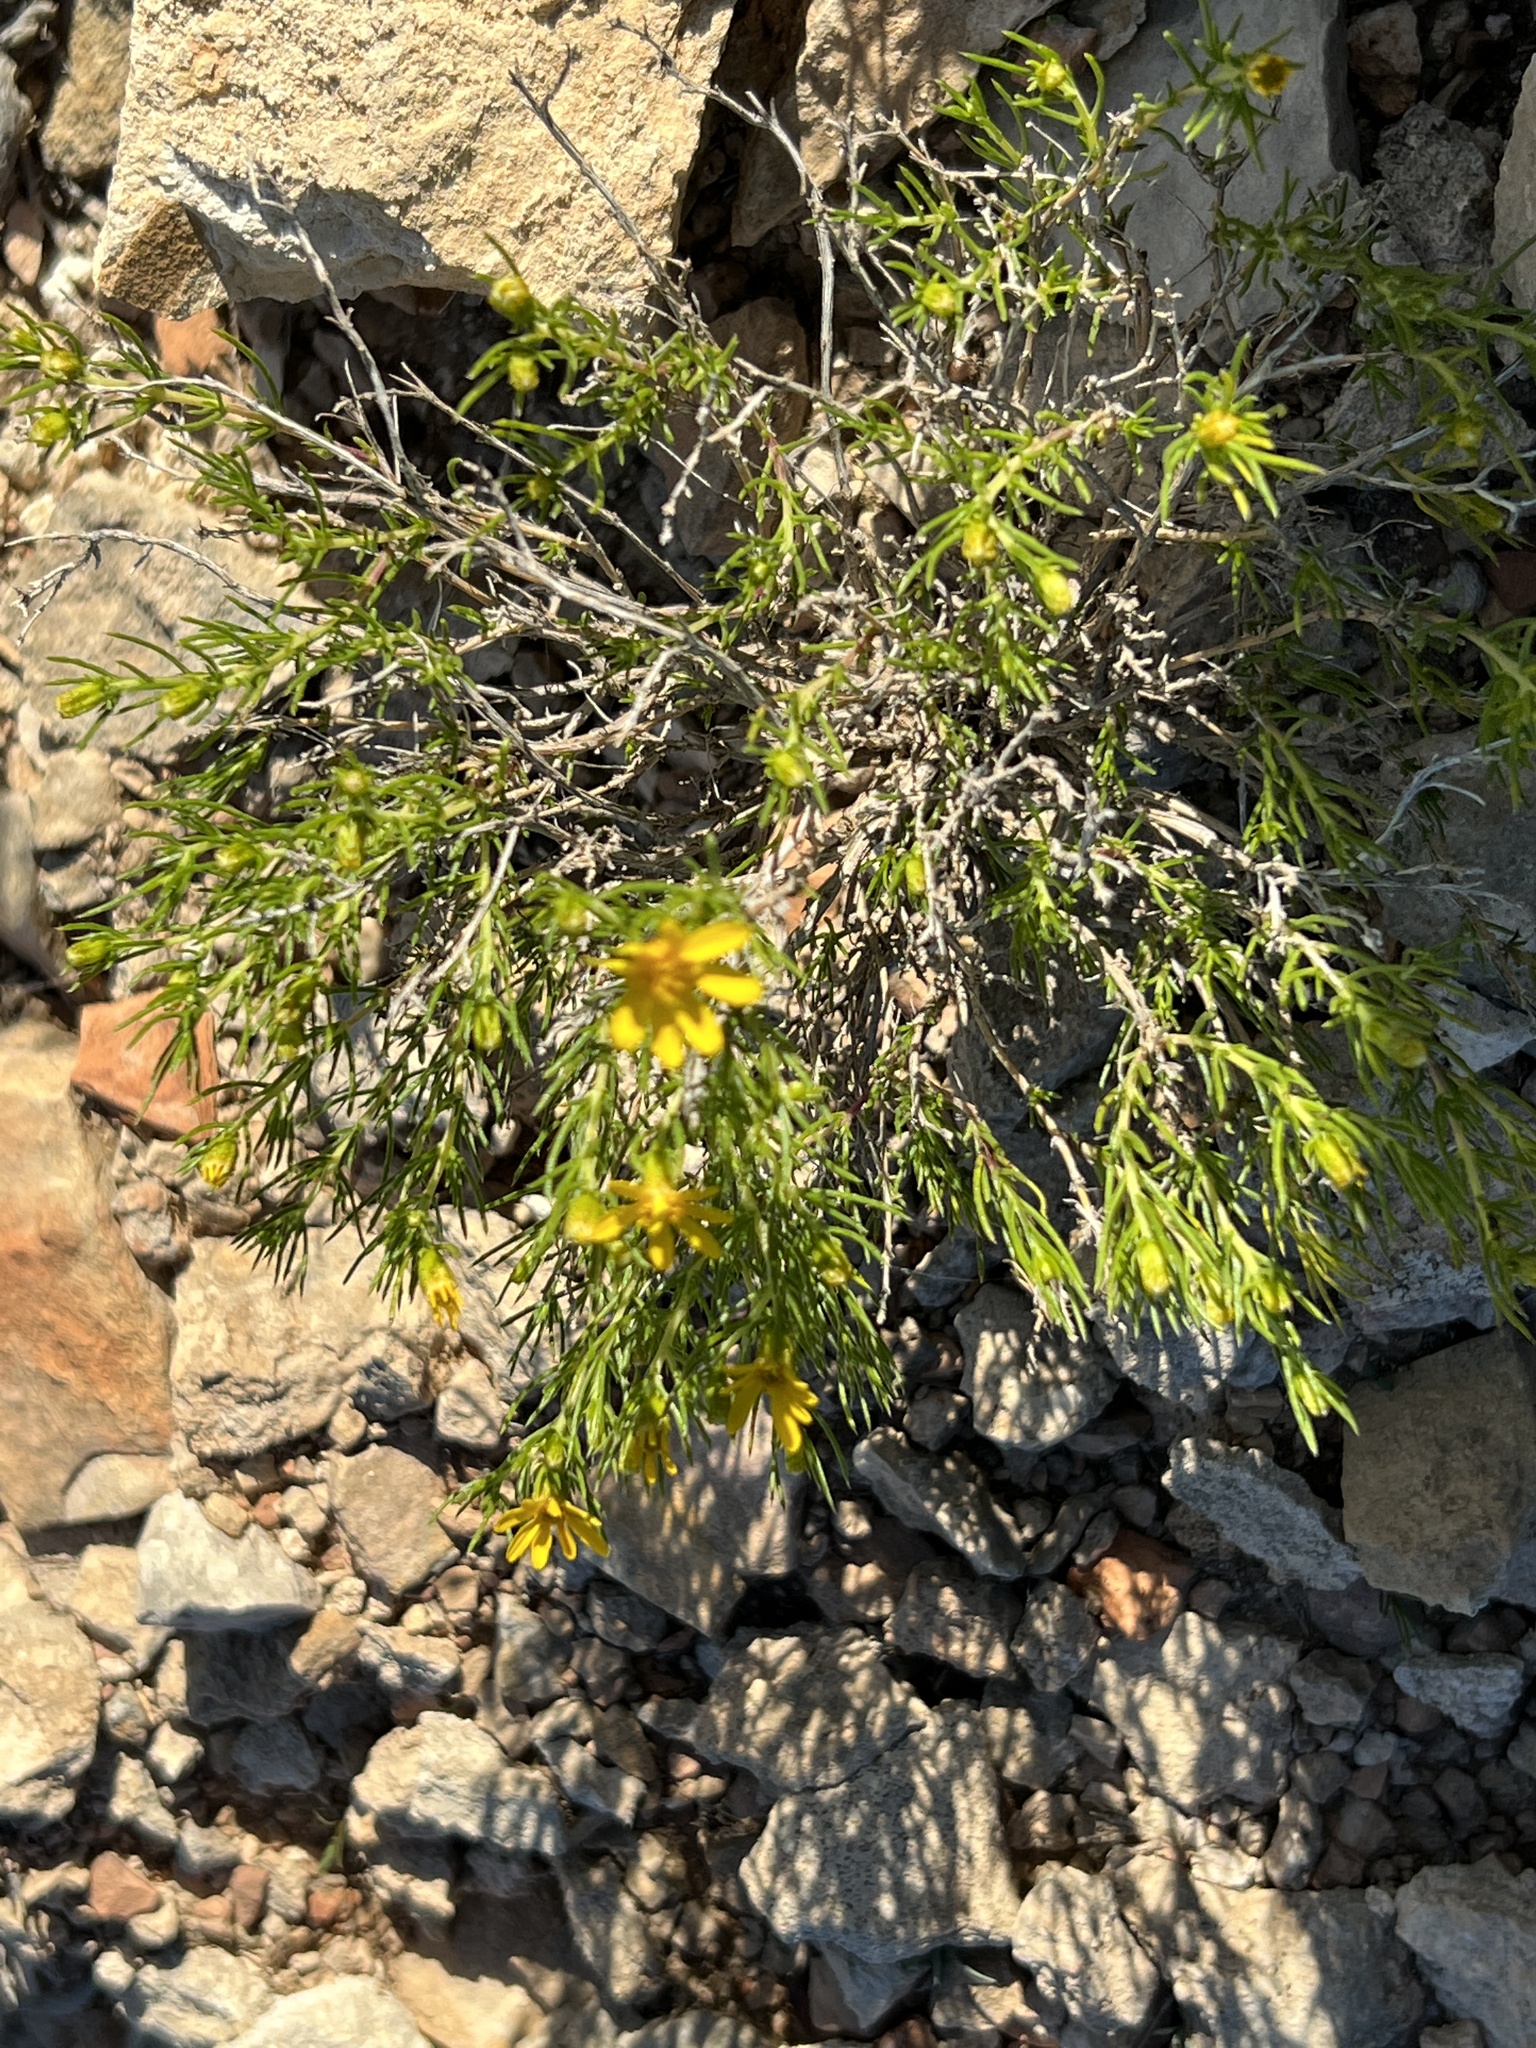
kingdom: Plantae
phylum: Tracheophyta
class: Magnoliopsida
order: Asterales
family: Asteraceae
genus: Thymophylla
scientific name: Thymophylla acerosa
